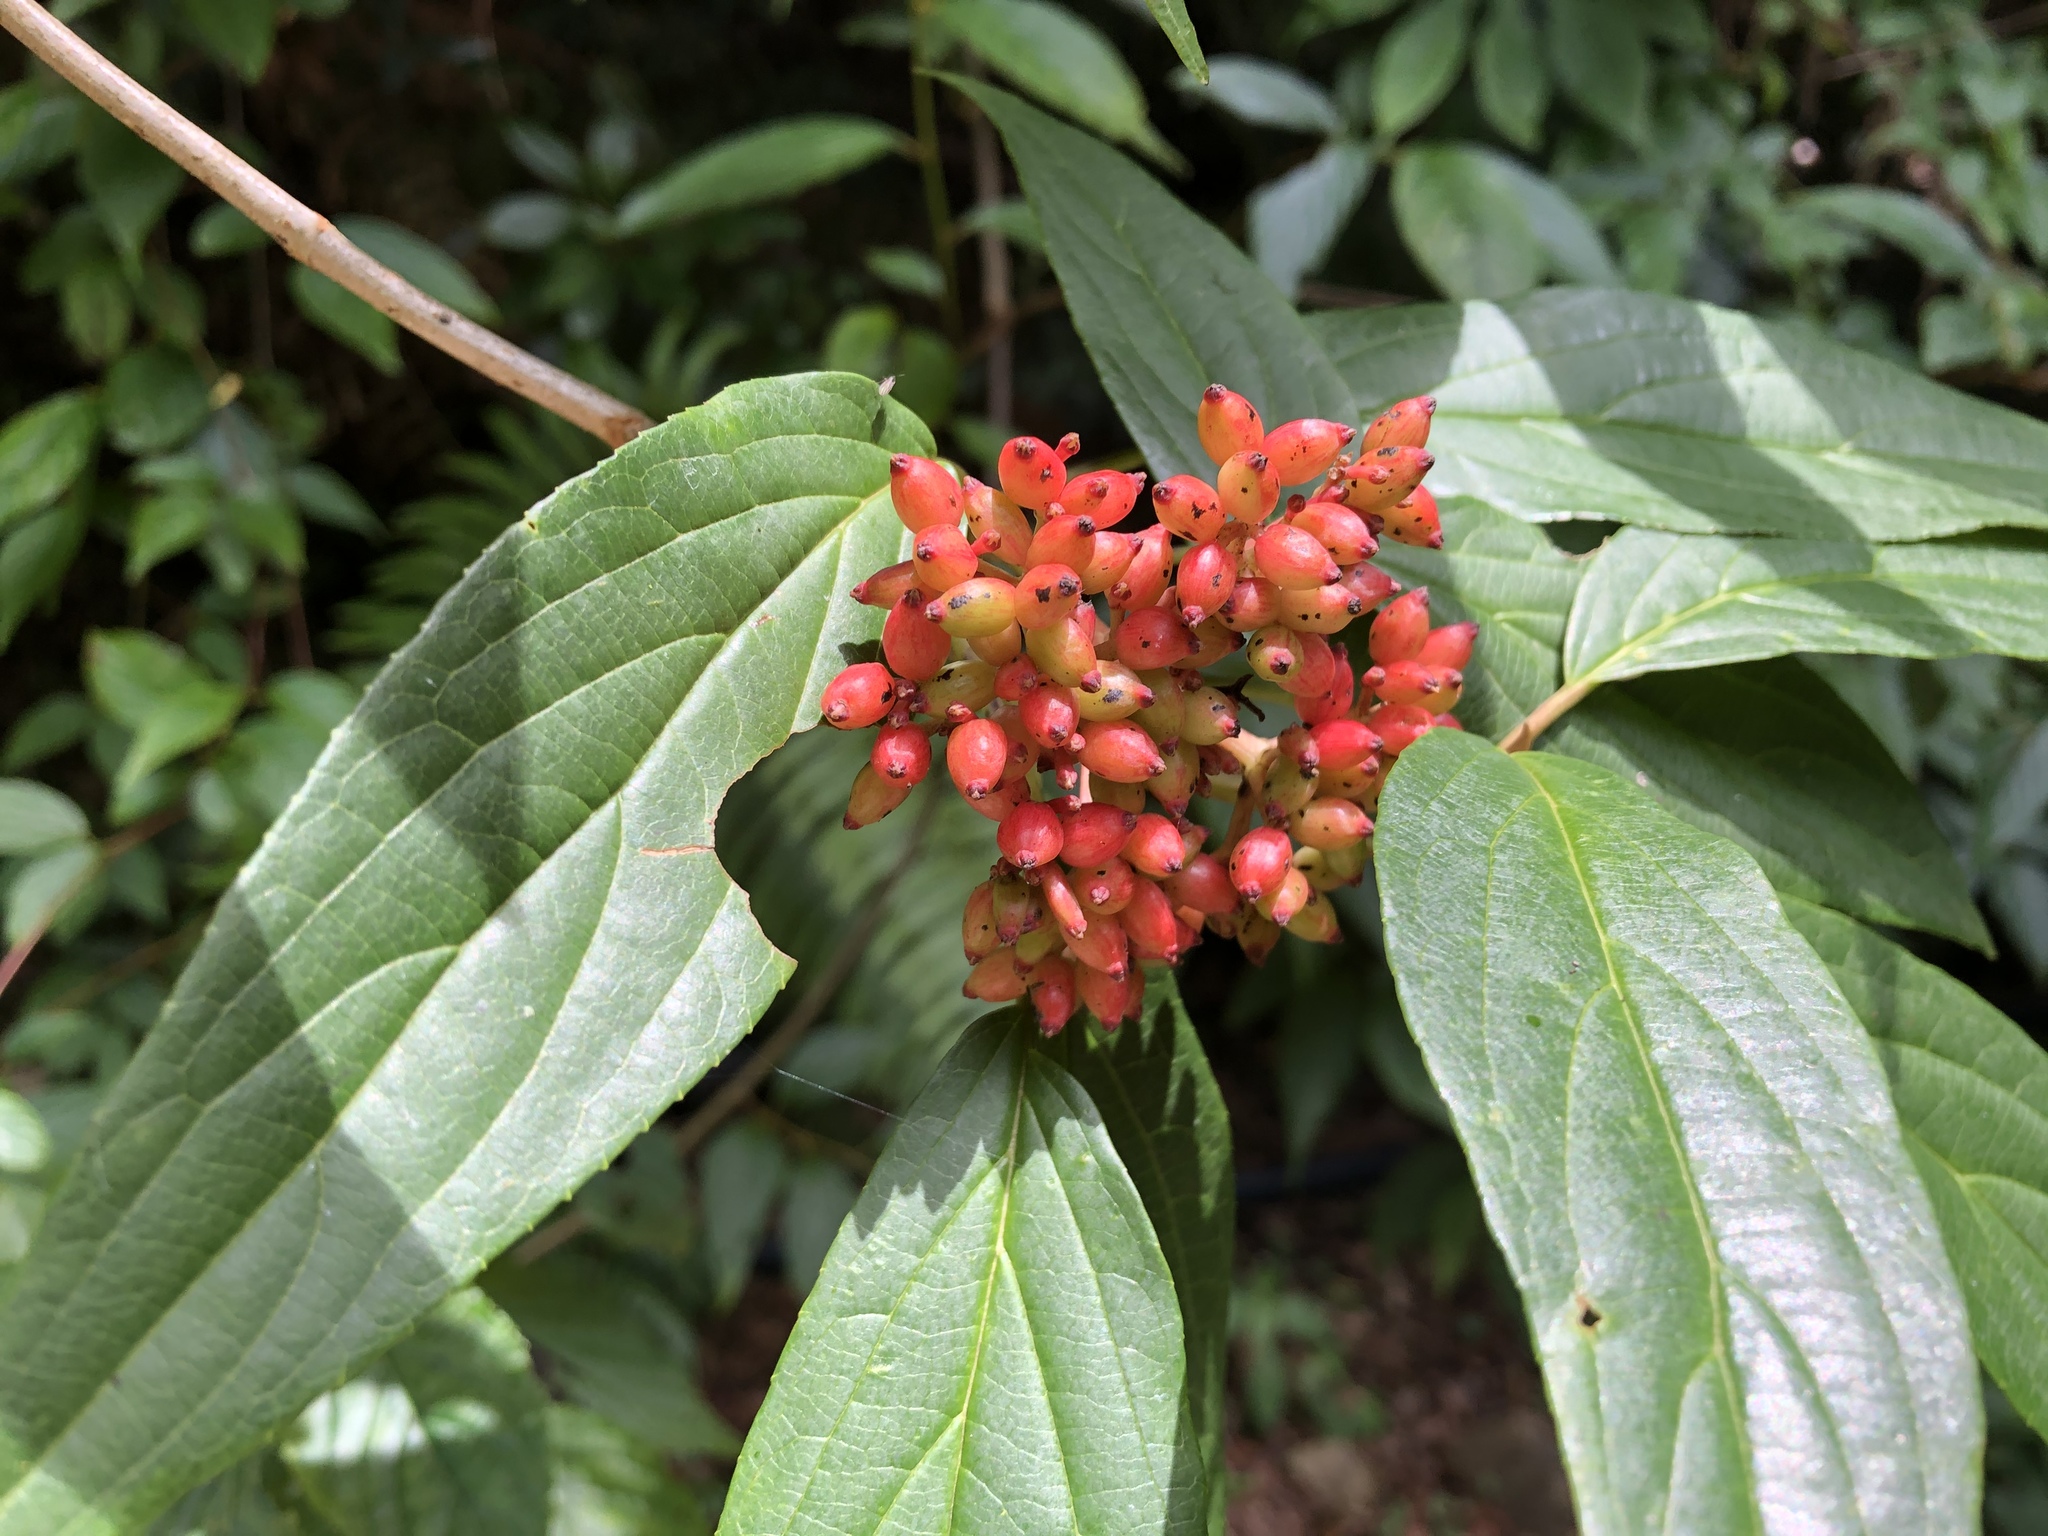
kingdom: Plantae
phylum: Tracheophyta
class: Magnoliopsida
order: Dipsacales
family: Viburnaceae
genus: Viburnum
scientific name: Viburnum urceolatum
